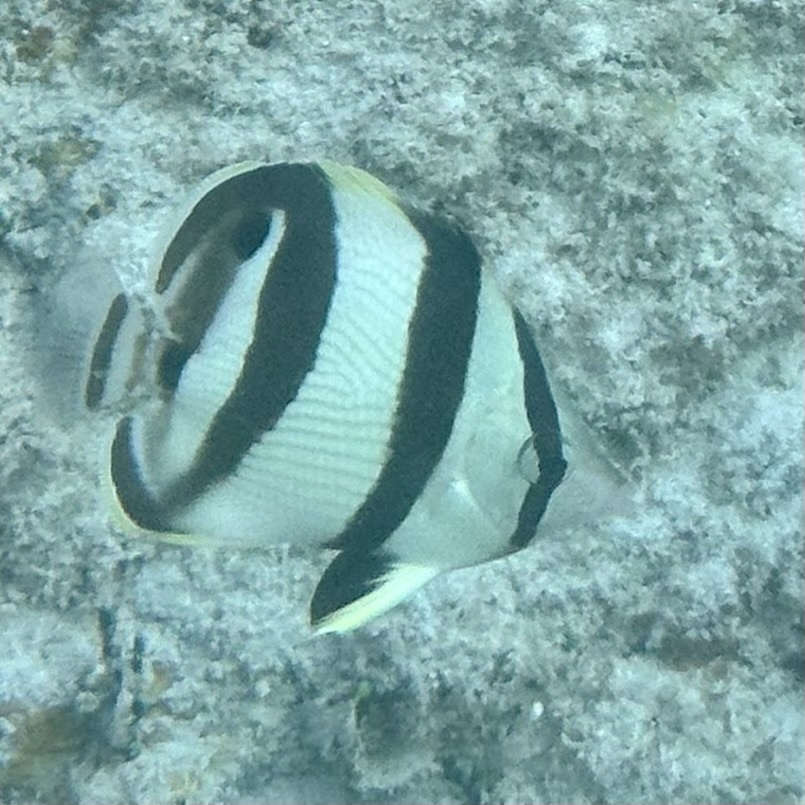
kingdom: Animalia
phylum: Chordata
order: Perciformes
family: Chaetodontidae
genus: Chaetodon
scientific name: Chaetodon striatus
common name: Banded butterflyfish
